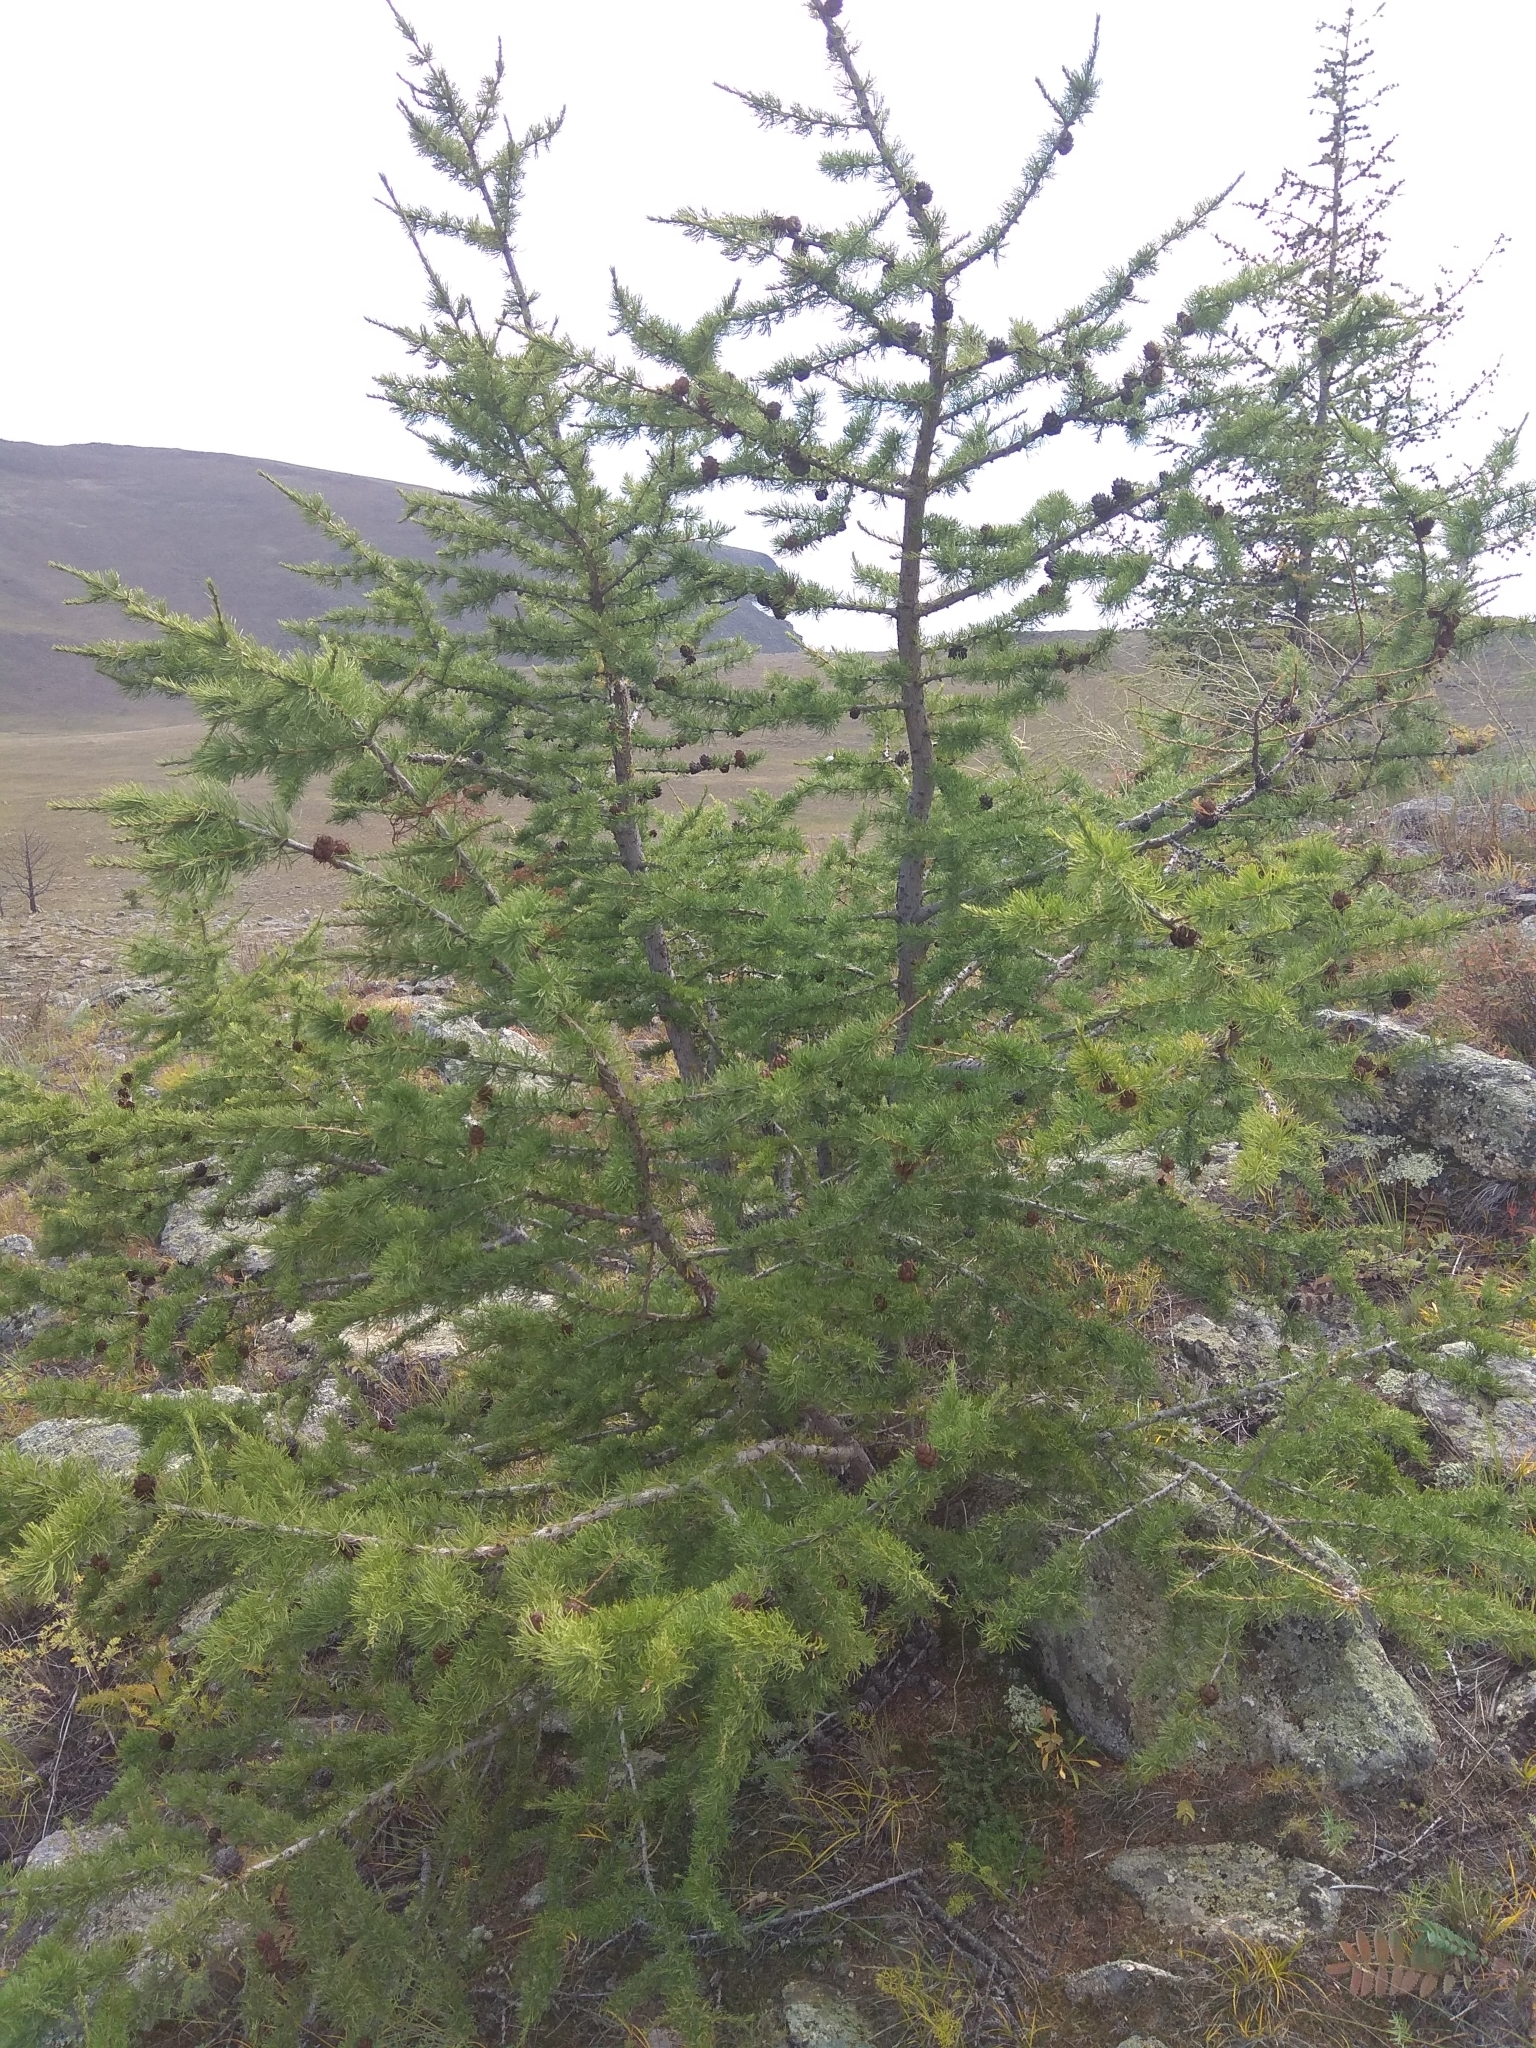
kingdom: Plantae
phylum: Tracheophyta
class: Pinopsida
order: Pinales
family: Pinaceae
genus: Larix
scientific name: Larix sibirica
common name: Siberian larch
